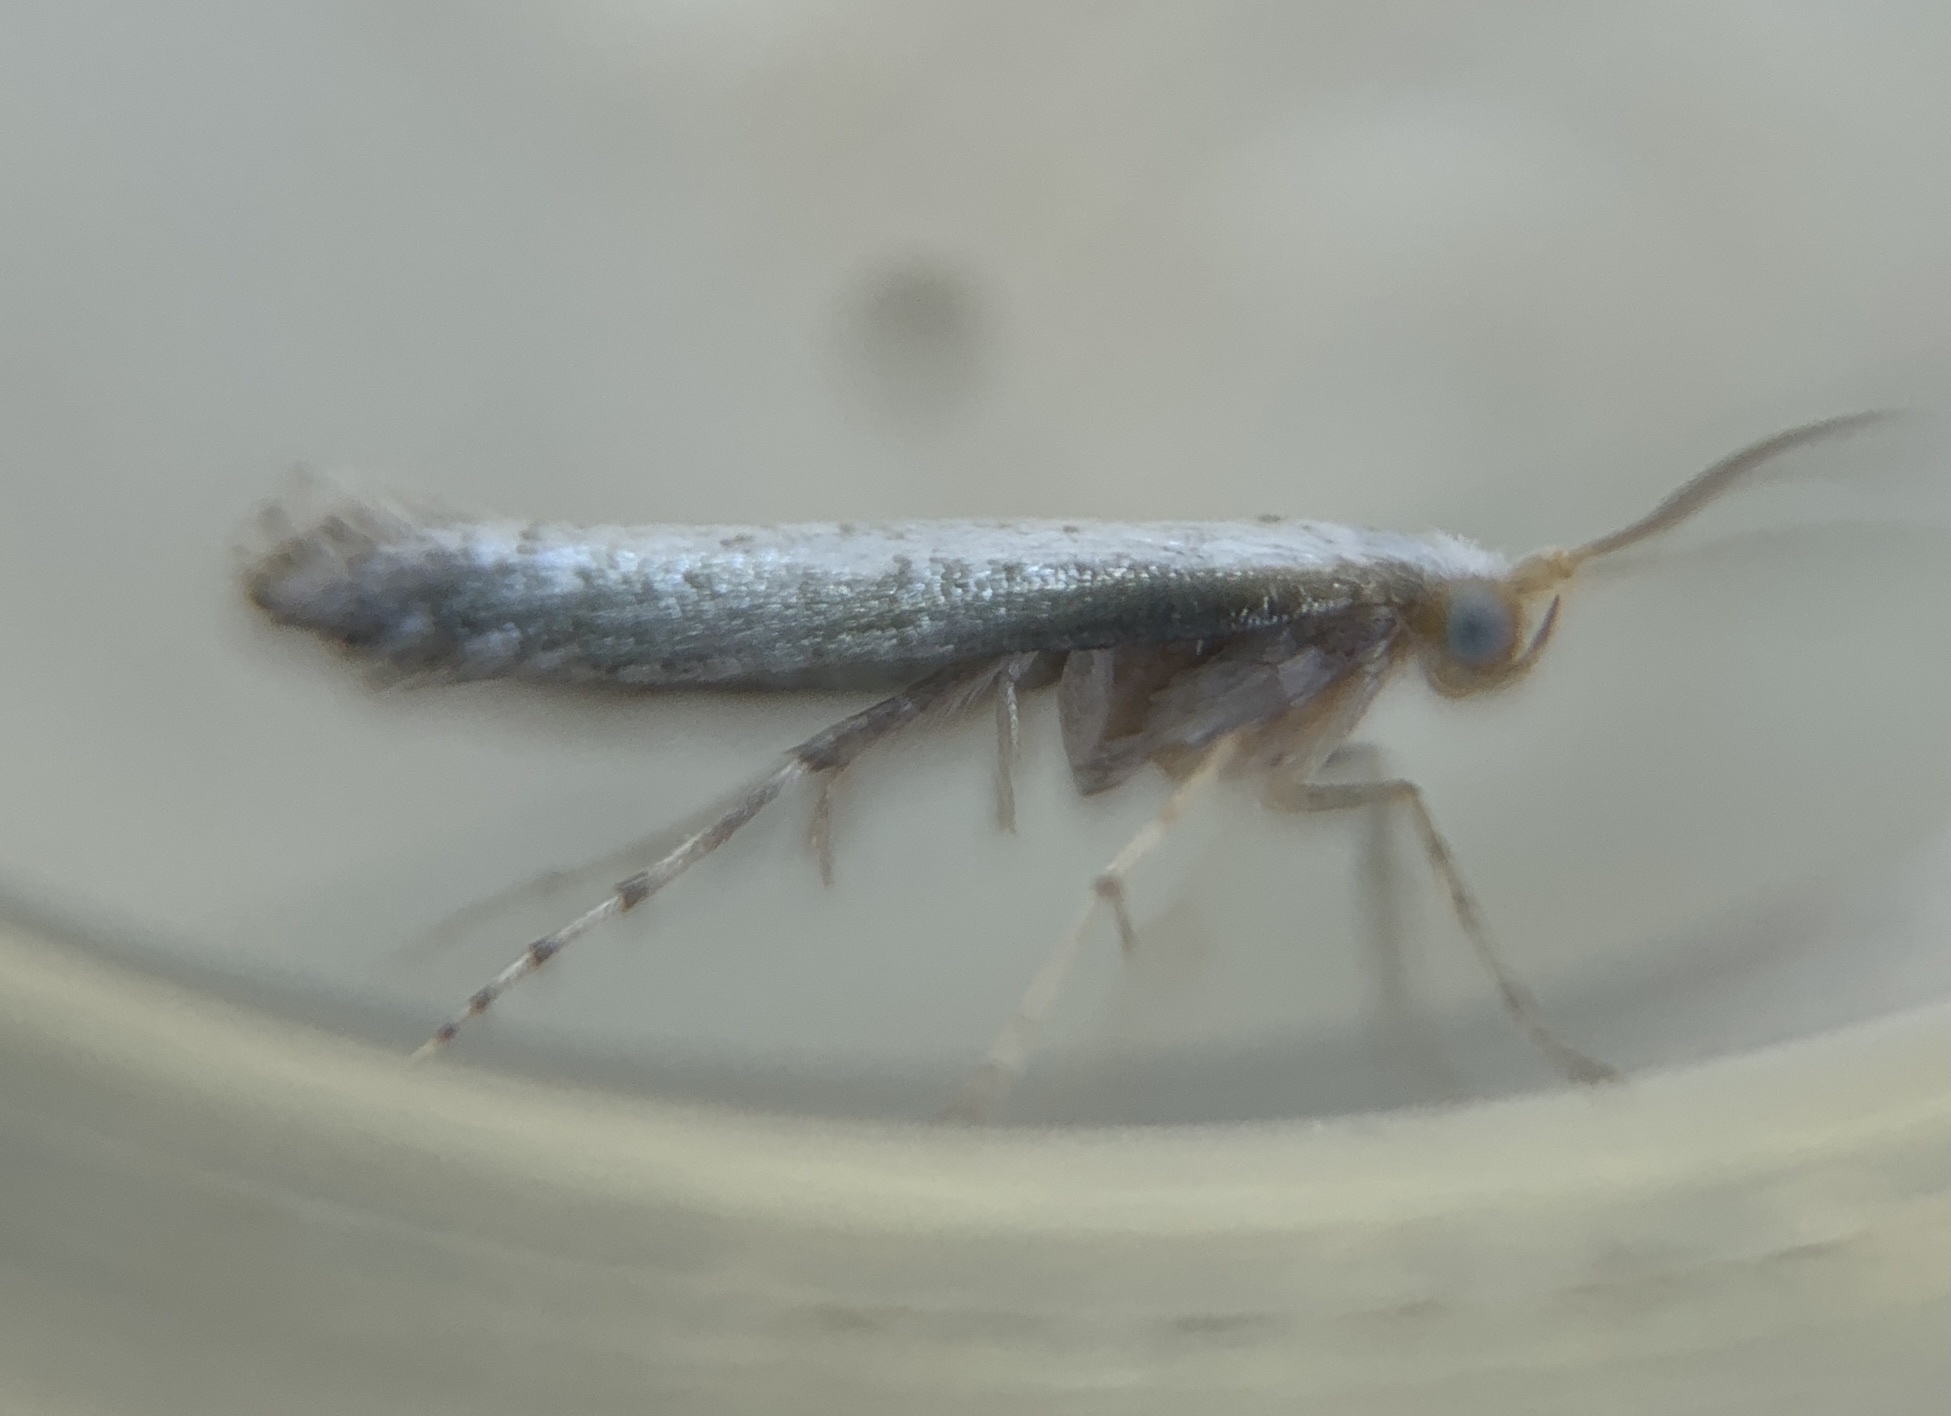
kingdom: Animalia
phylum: Arthropoda
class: Insecta
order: Lepidoptera
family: Argyresthiidae
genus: Argyresthia
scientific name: Argyresthia subreticulata
